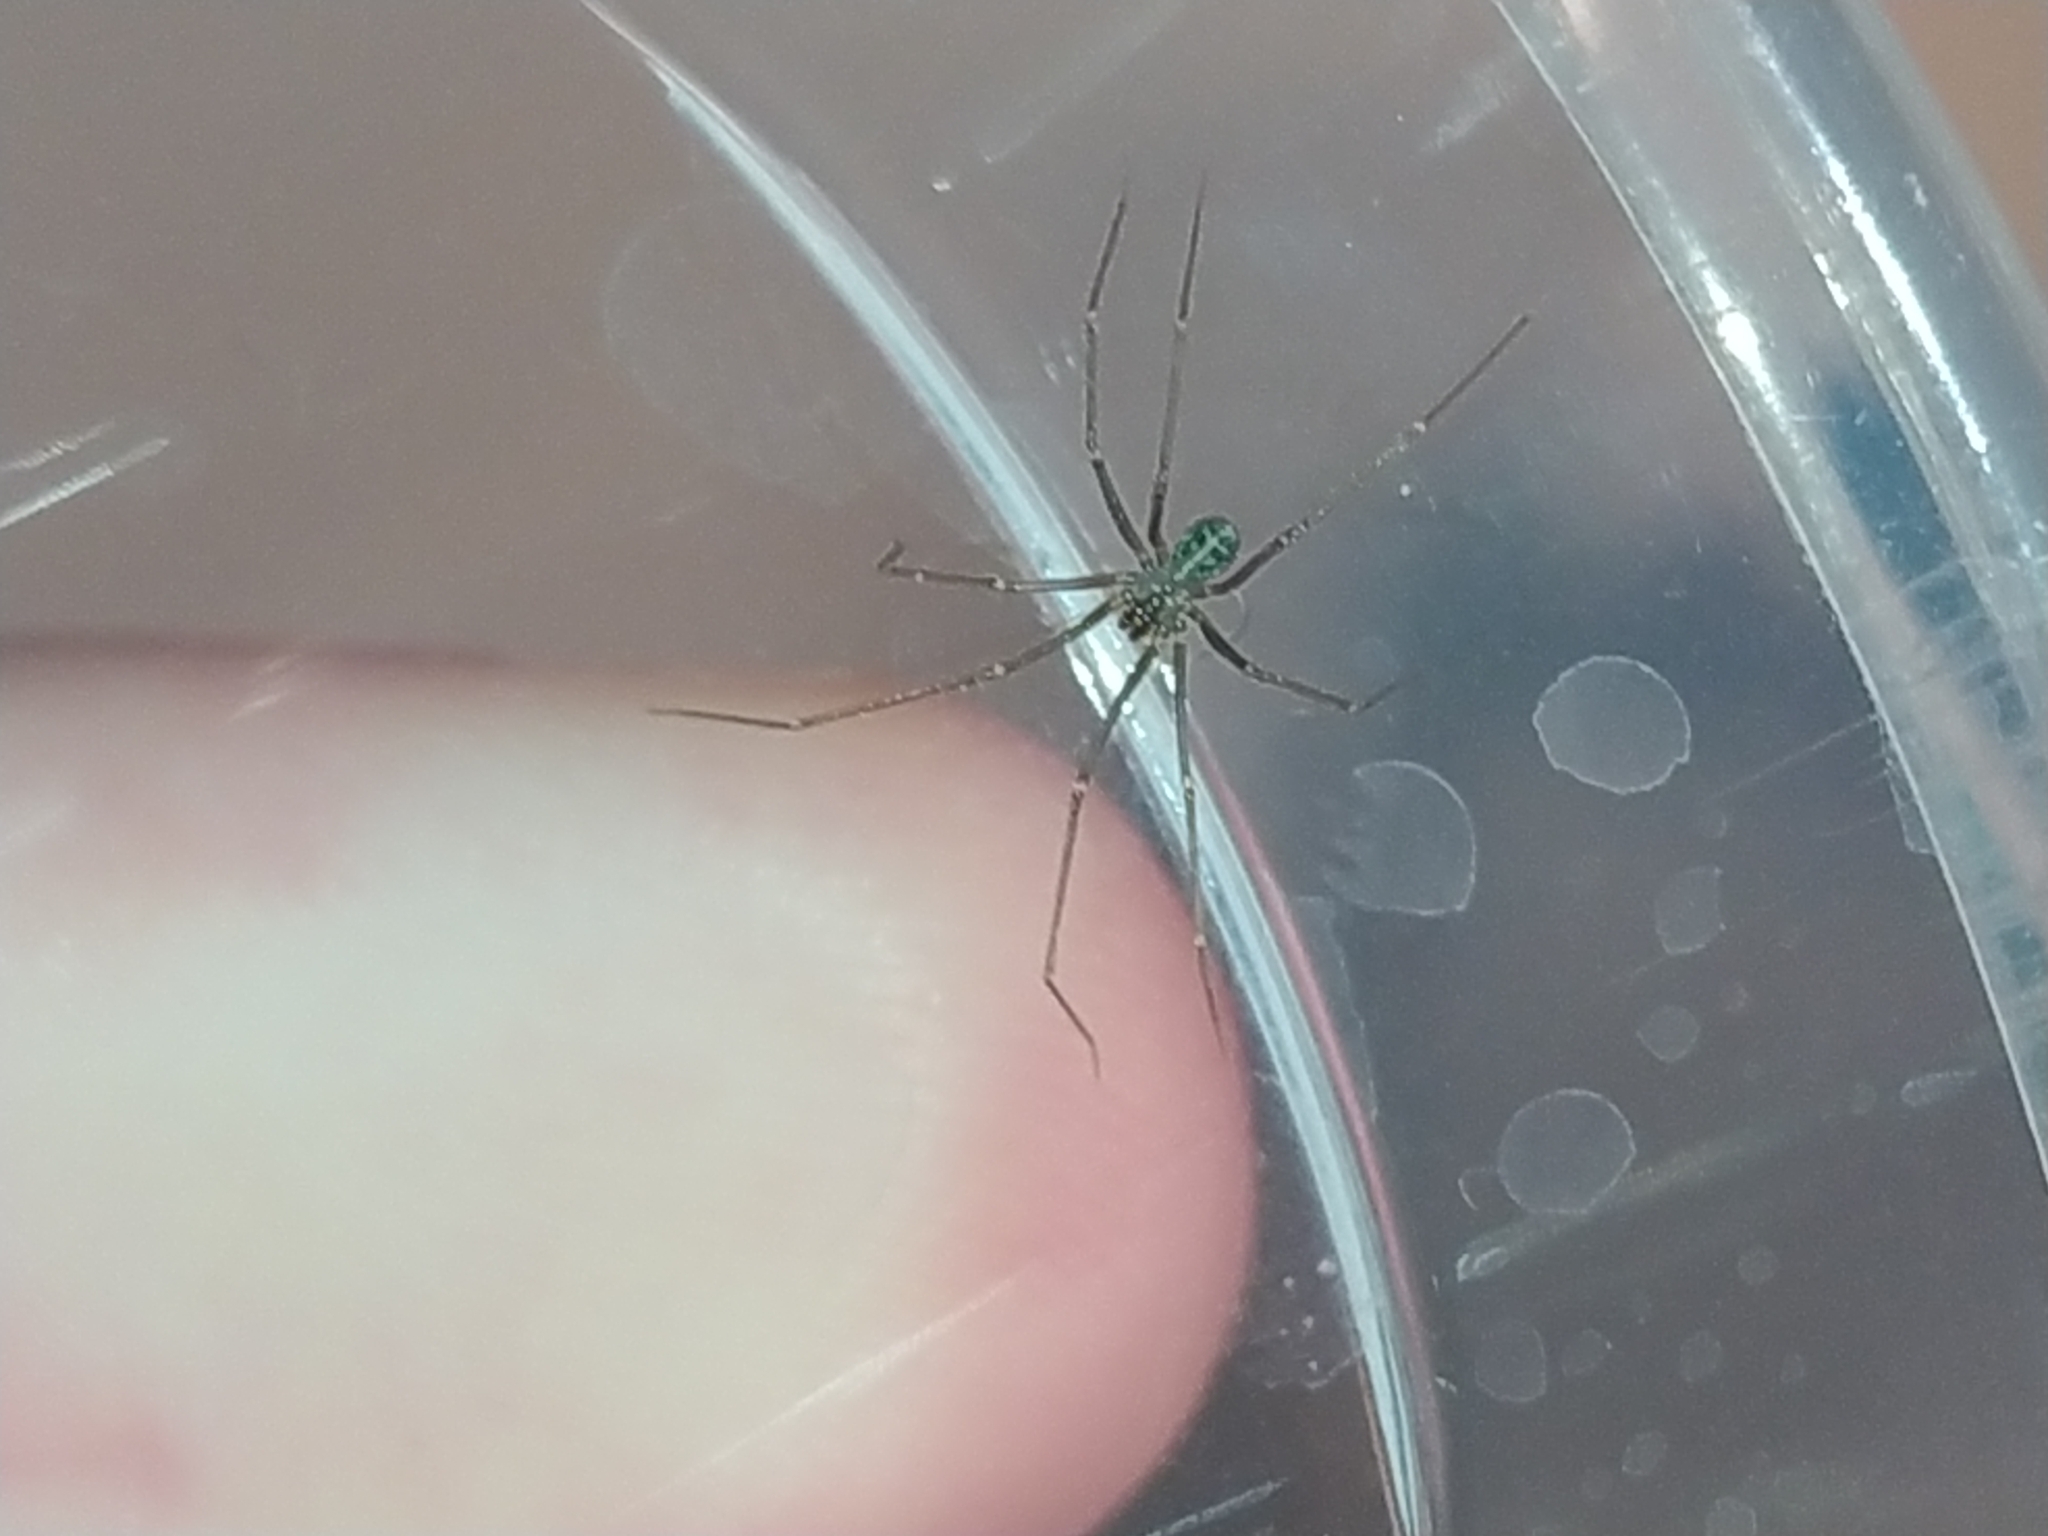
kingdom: Animalia
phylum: Arthropoda
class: Arachnida
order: Araneae
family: Pholcidae
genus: Psilochorus
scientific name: Psilochorus simoni
